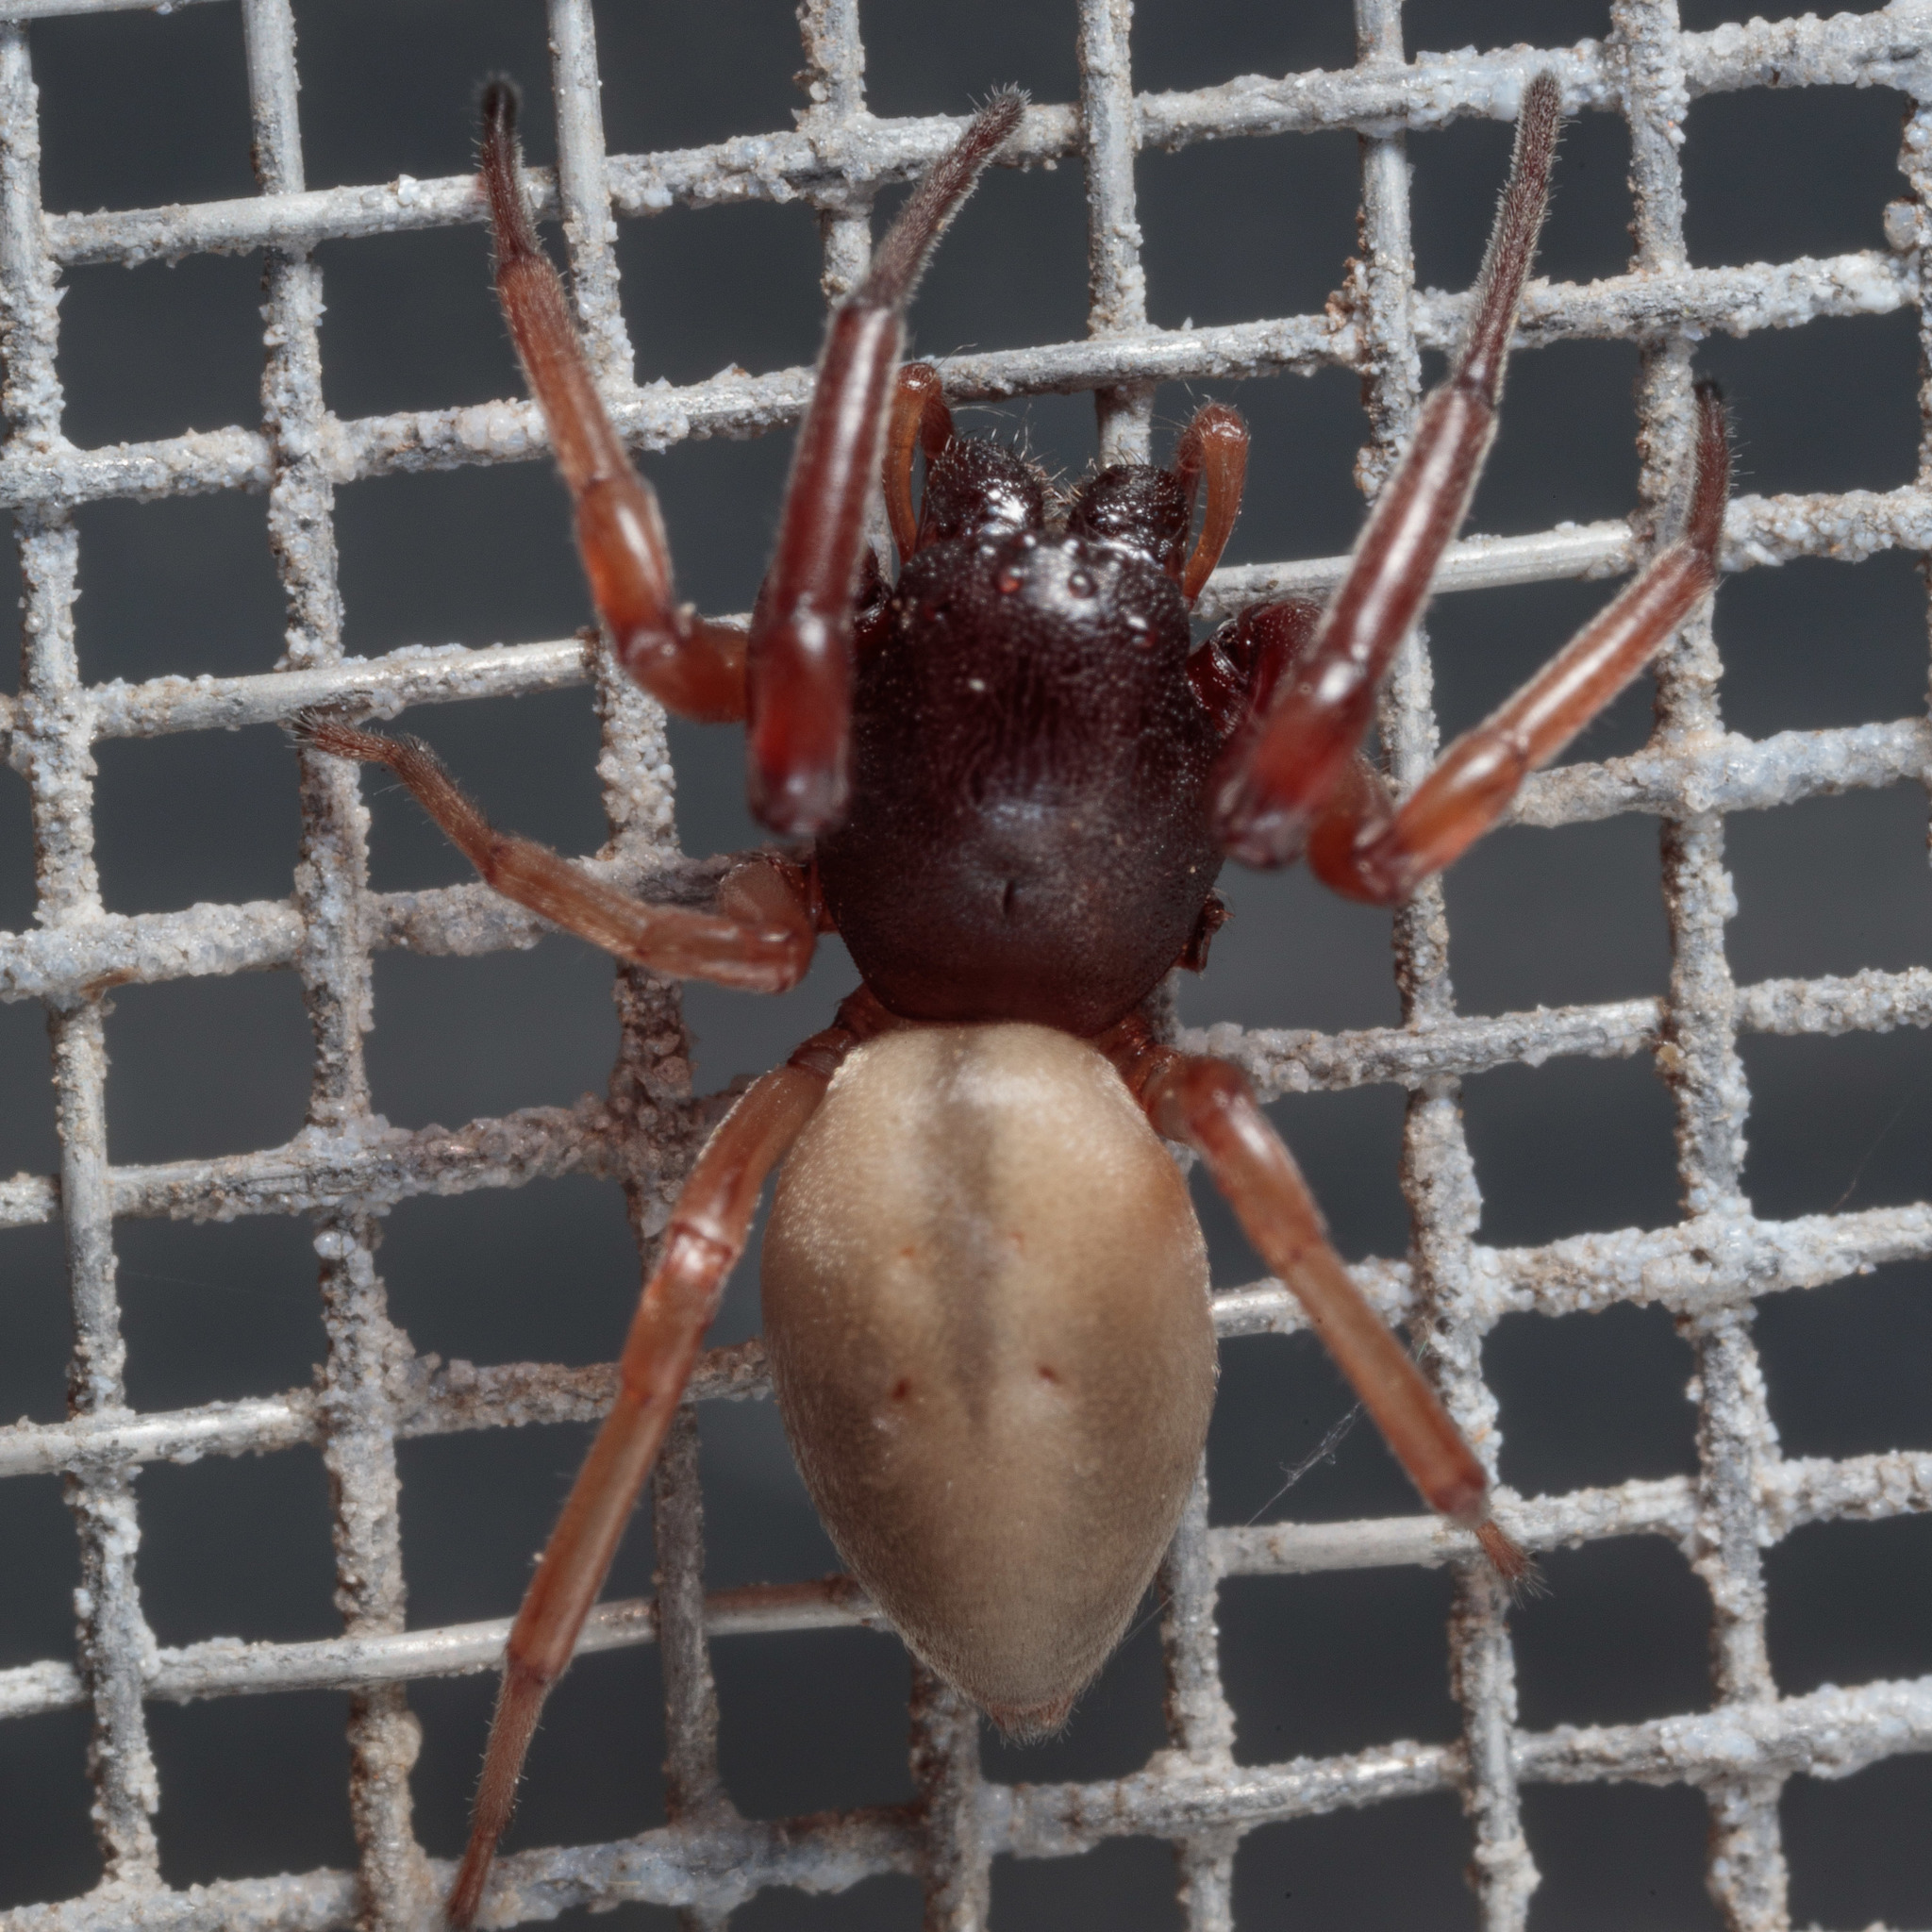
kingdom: Animalia
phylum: Arthropoda
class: Arachnida
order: Araneae
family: Trachelidae
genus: Trachelas
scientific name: Trachelas
